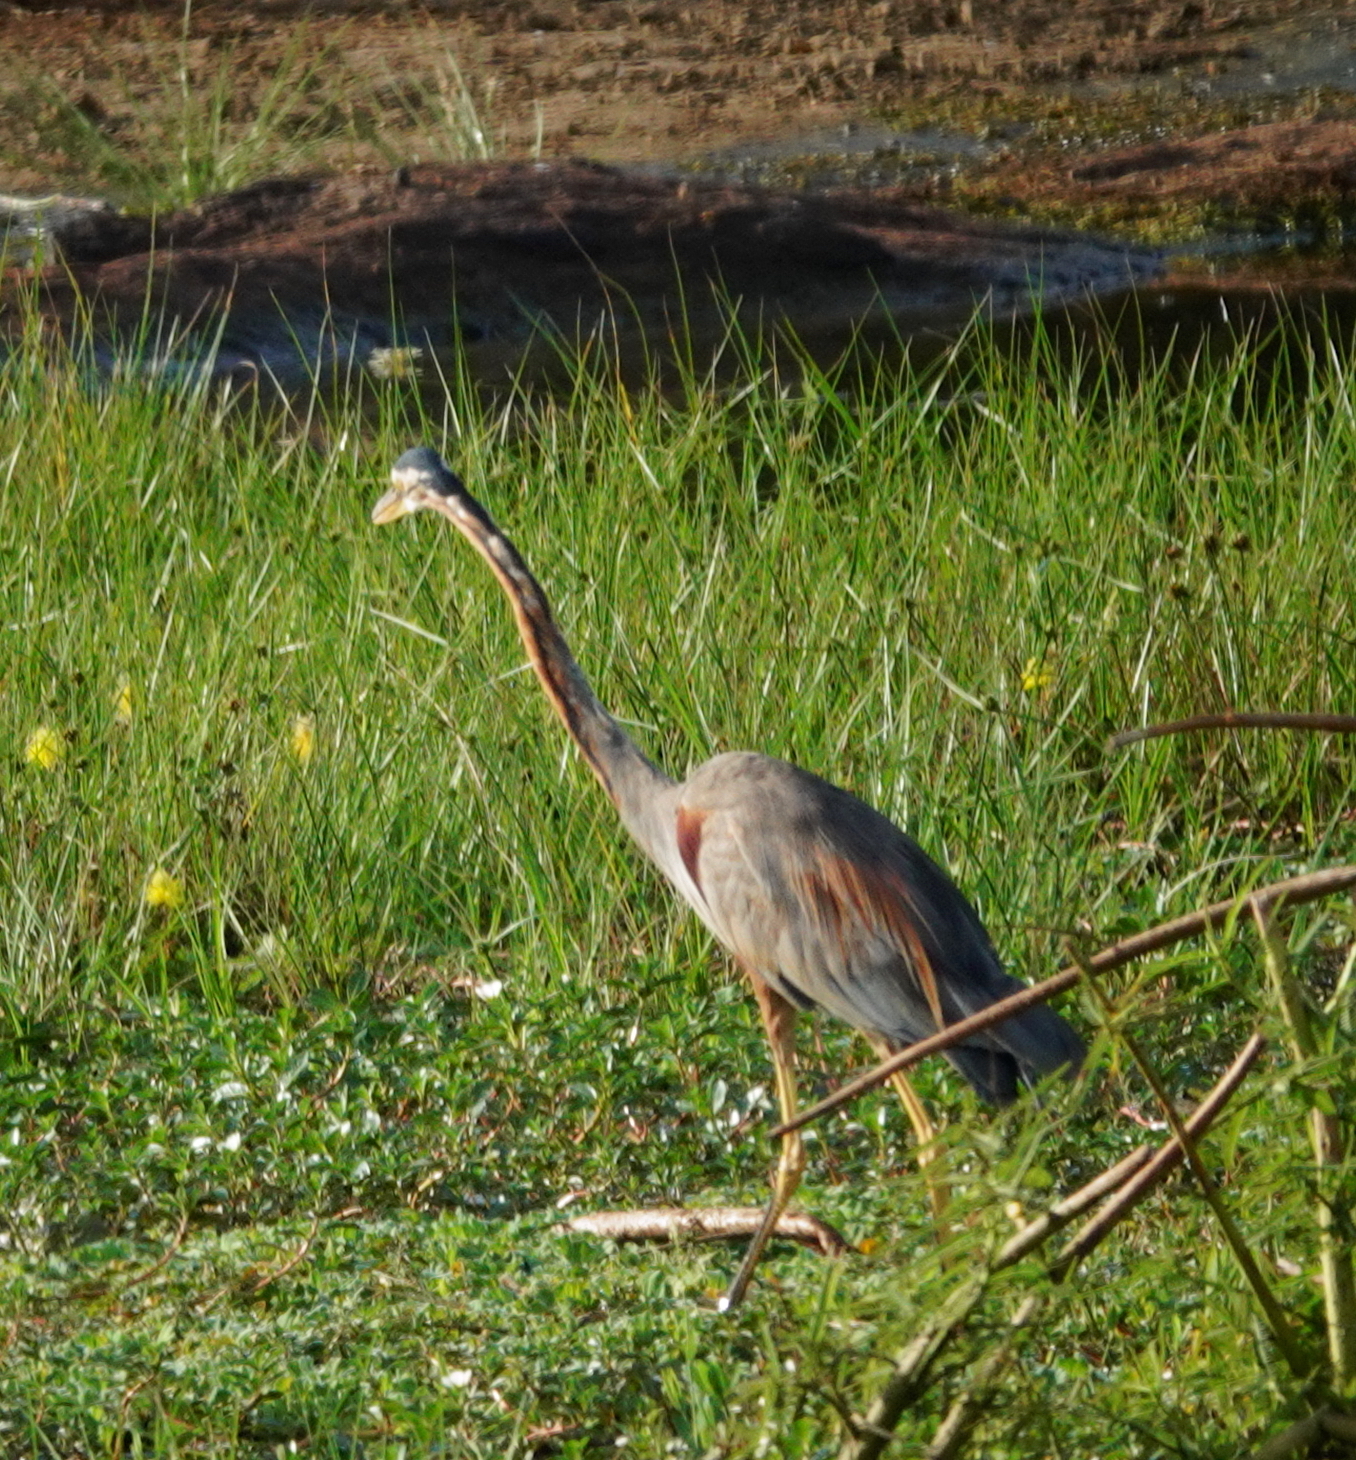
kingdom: Animalia
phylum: Chordata
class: Aves
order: Pelecaniformes
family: Ardeidae
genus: Ardea
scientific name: Ardea purpurea
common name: Purple heron
